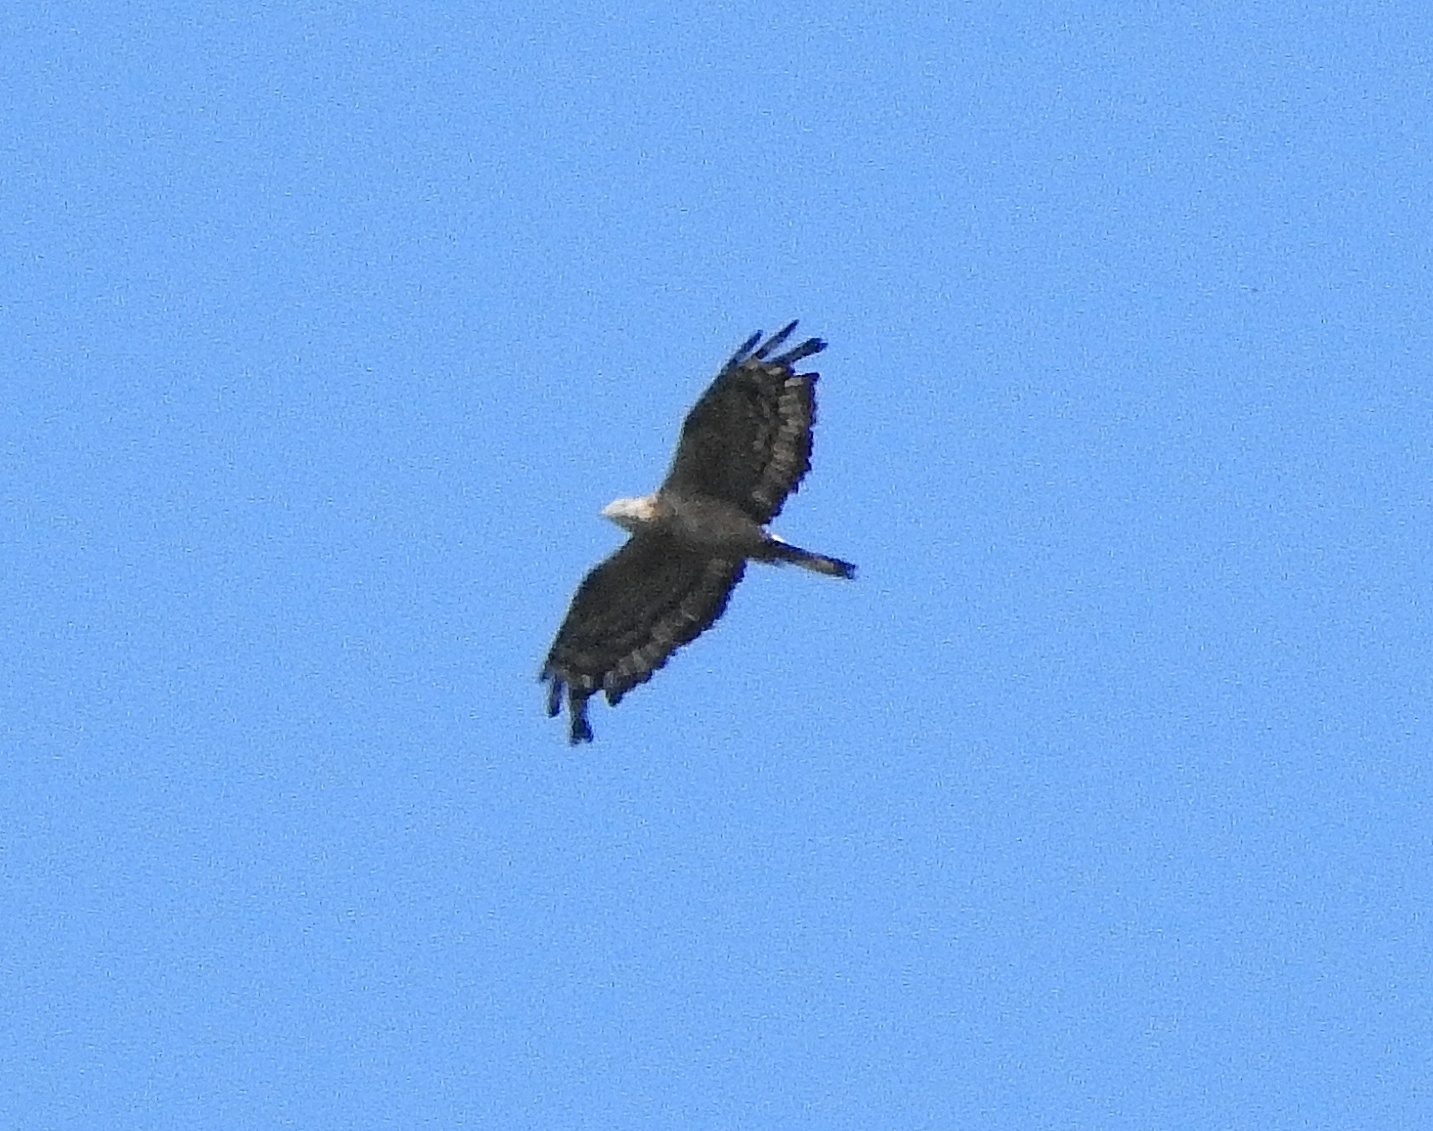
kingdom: Animalia
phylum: Chordata
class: Aves
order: Accipitriformes
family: Accipitridae
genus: Pernis
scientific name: Pernis ptilorhynchus
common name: Crested honey buzzard
